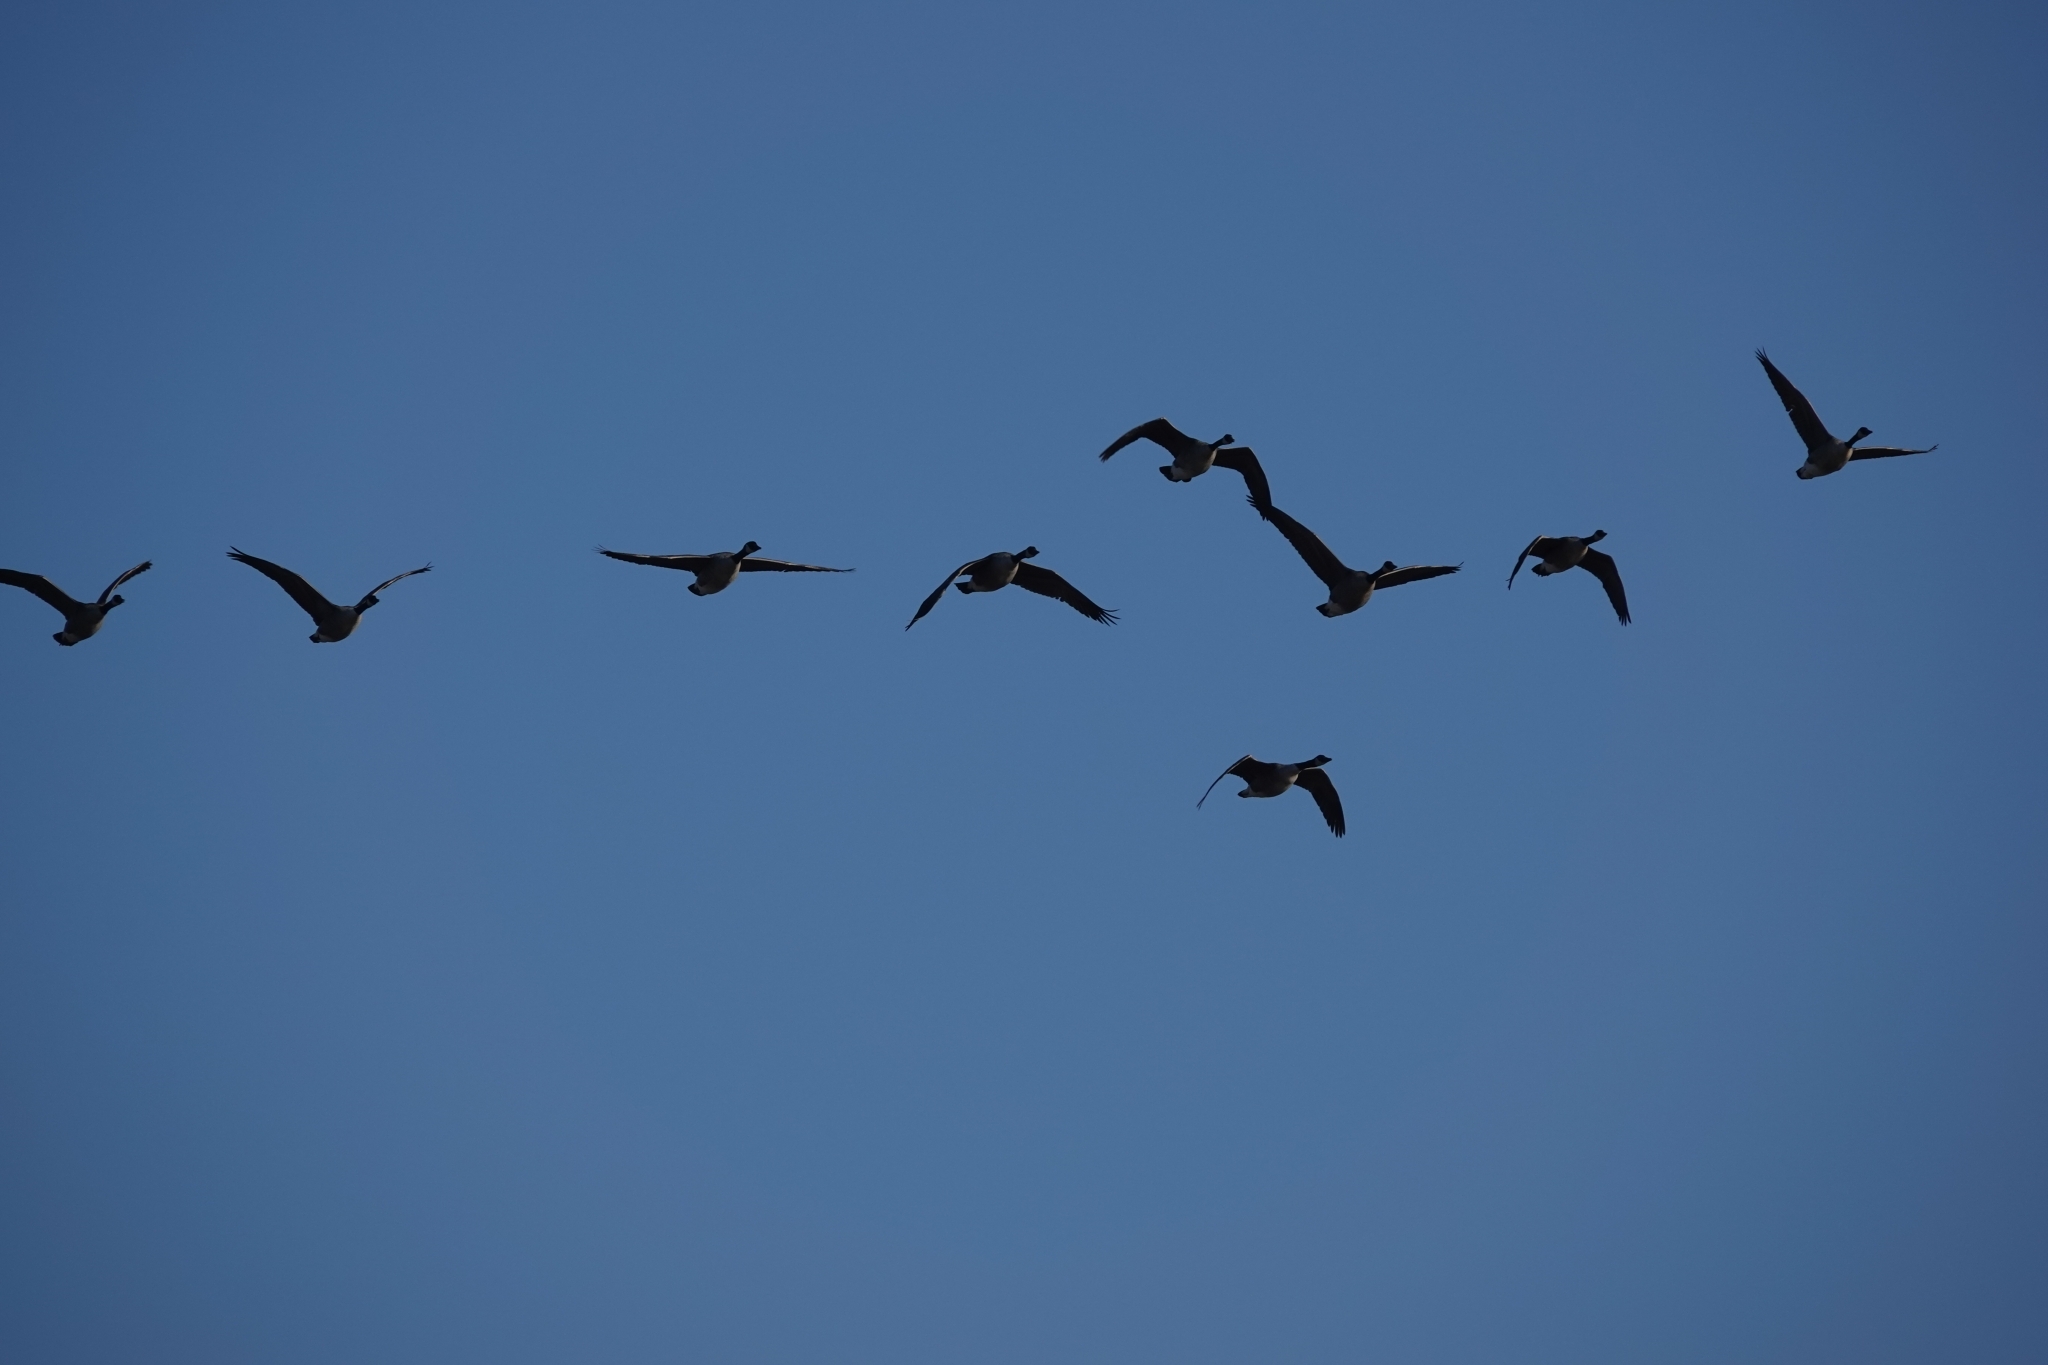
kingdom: Animalia
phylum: Chordata
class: Aves
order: Anseriformes
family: Anatidae
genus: Branta
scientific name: Branta canadensis
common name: Canada goose
